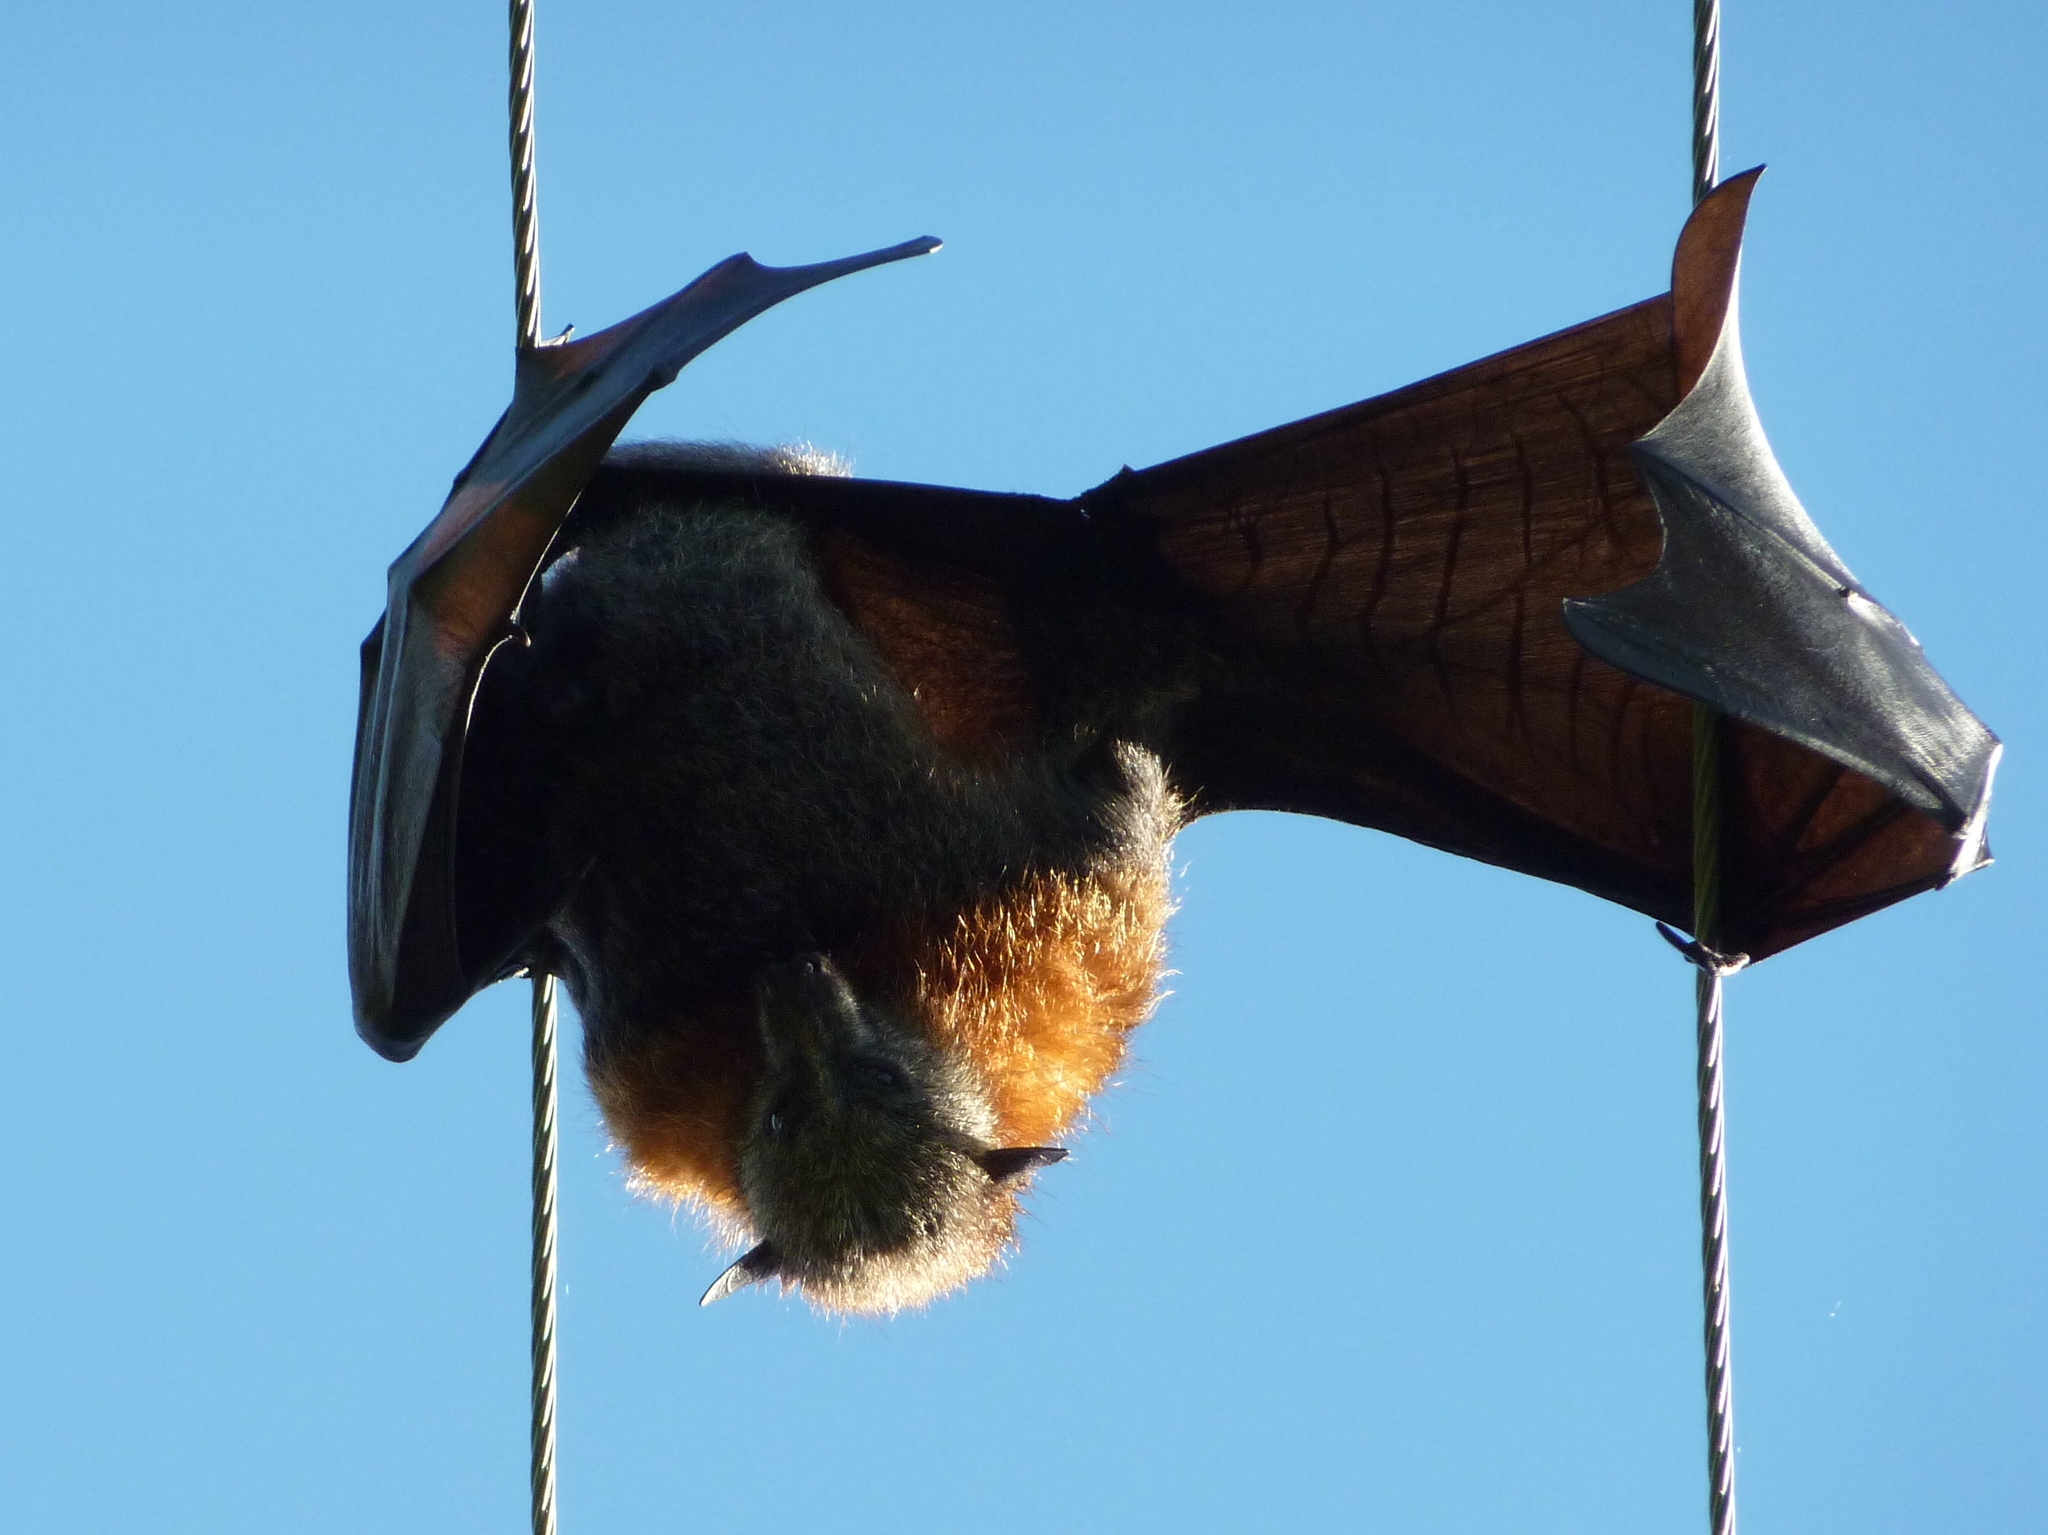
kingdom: Animalia
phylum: Chordata
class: Mammalia
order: Chiroptera
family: Pteropodidae
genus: Pteropus
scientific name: Pteropus poliocephalus
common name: Gray-headed flying fox
